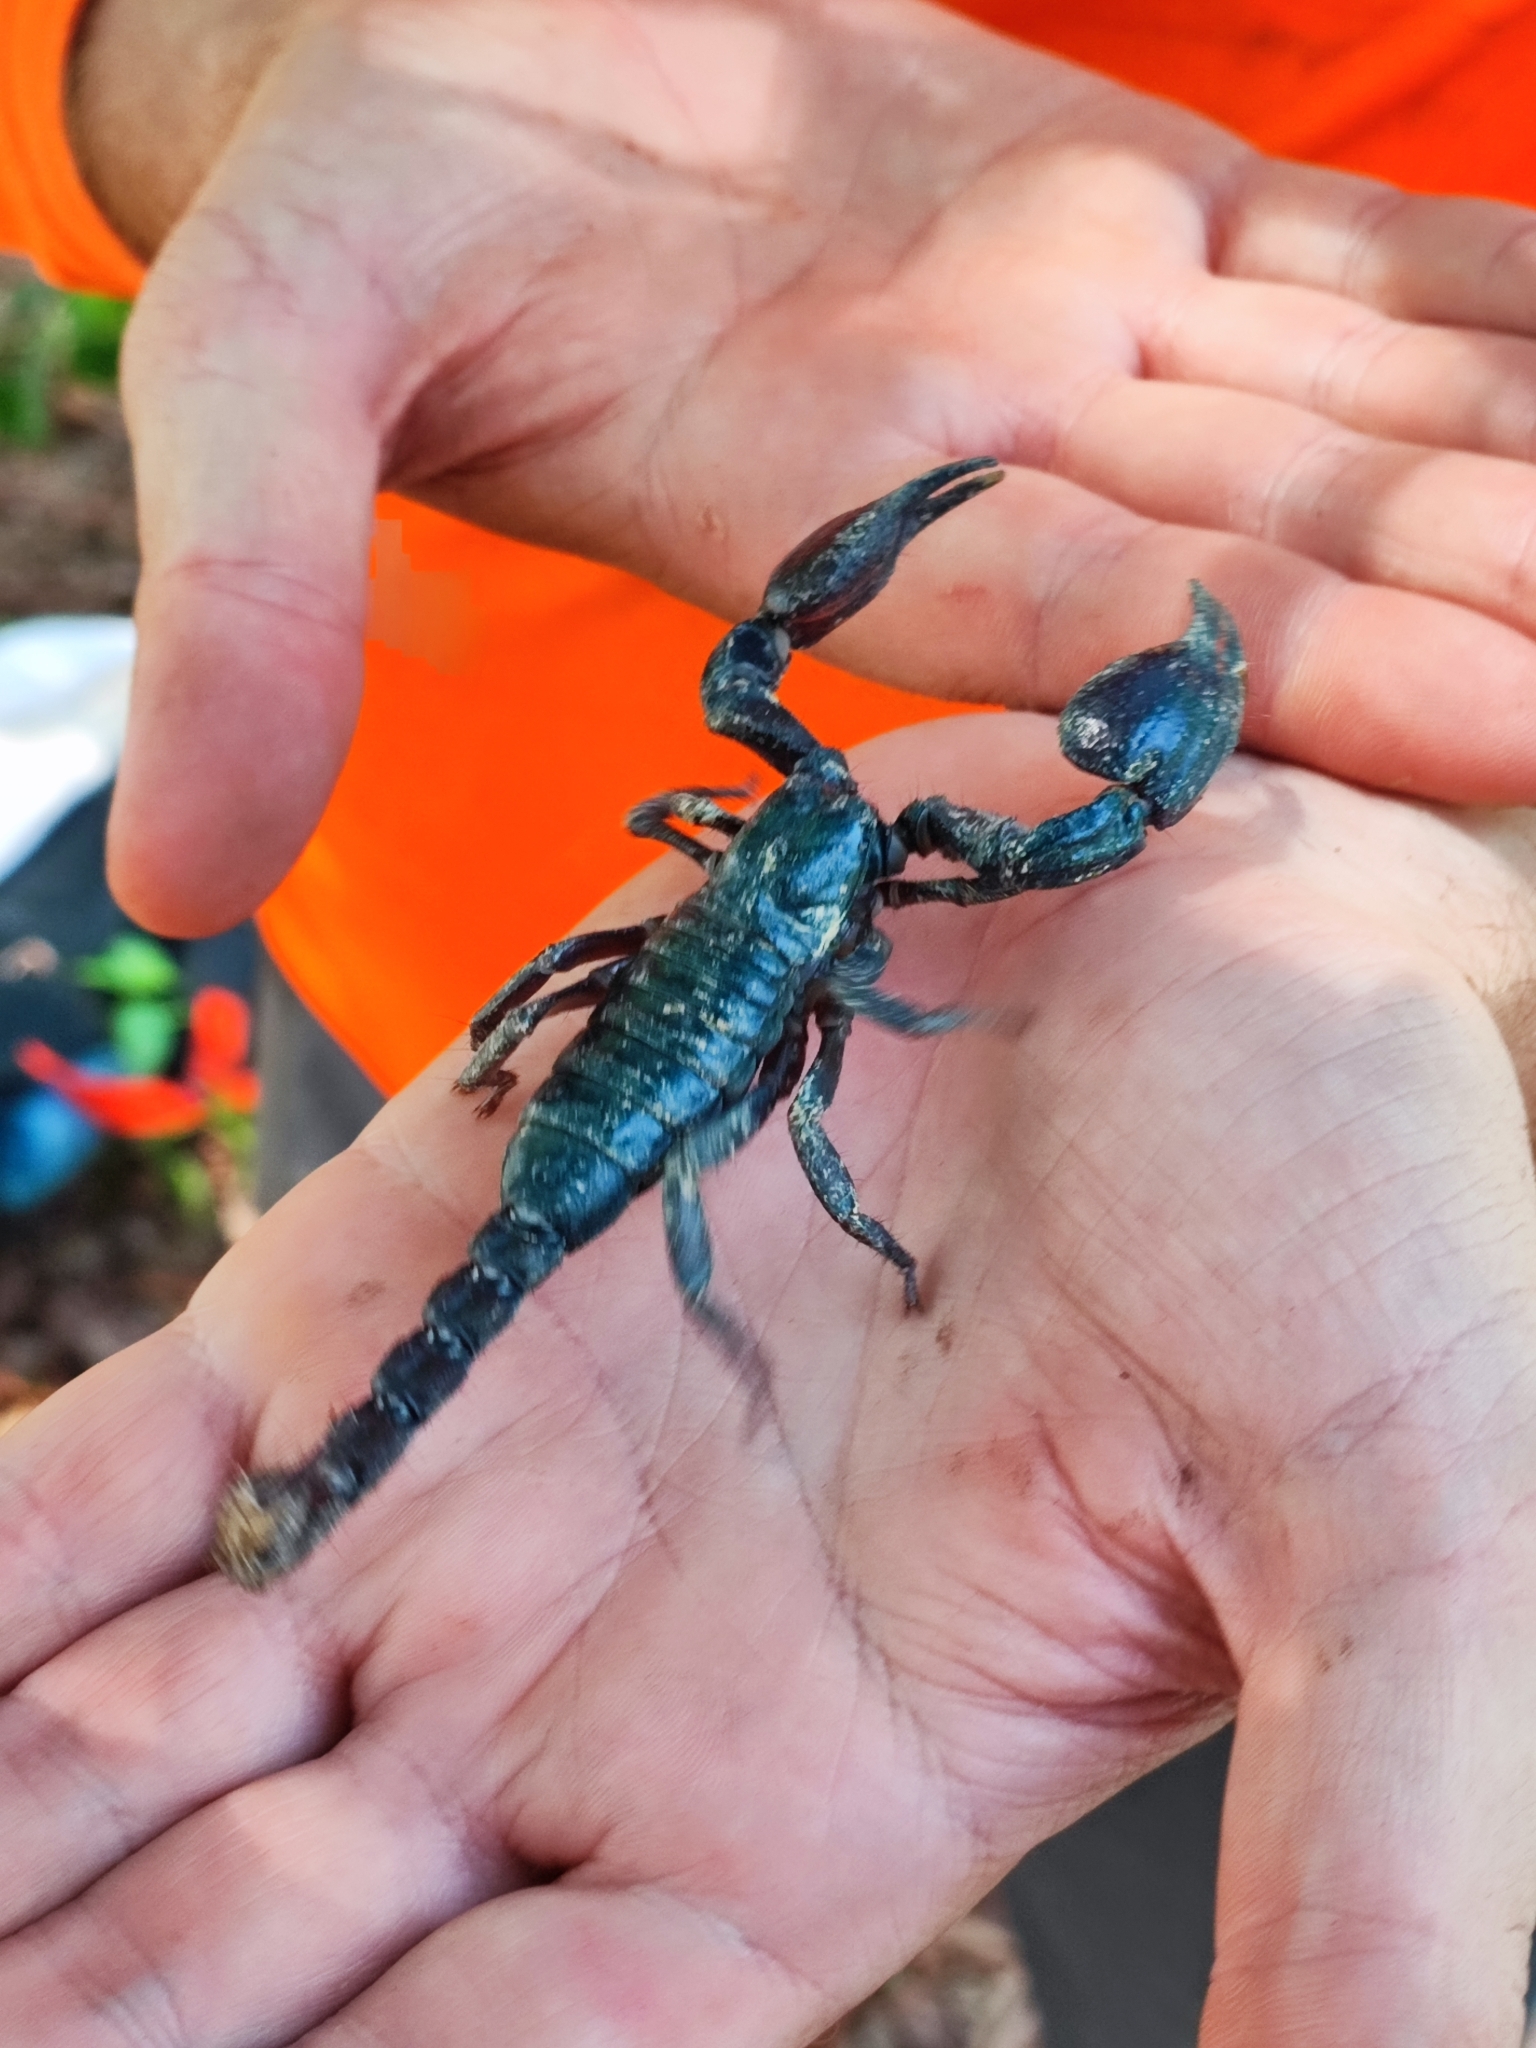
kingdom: Animalia
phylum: Arthropoda
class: Arachnida
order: Scorpiones
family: Scorpionidae
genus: Heterometrus
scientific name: Heterometrus silenus
